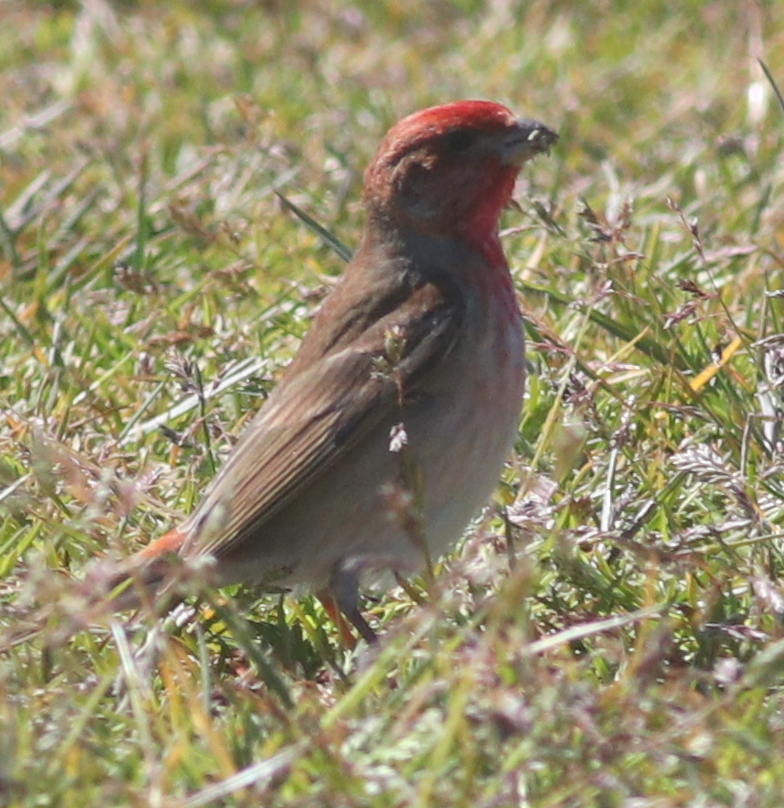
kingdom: Animalia
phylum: Chordata
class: Aves
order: Passeriformes
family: Fringillidae
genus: Carpodacus
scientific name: Carpodacus erythrinus
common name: Common rosefinch
